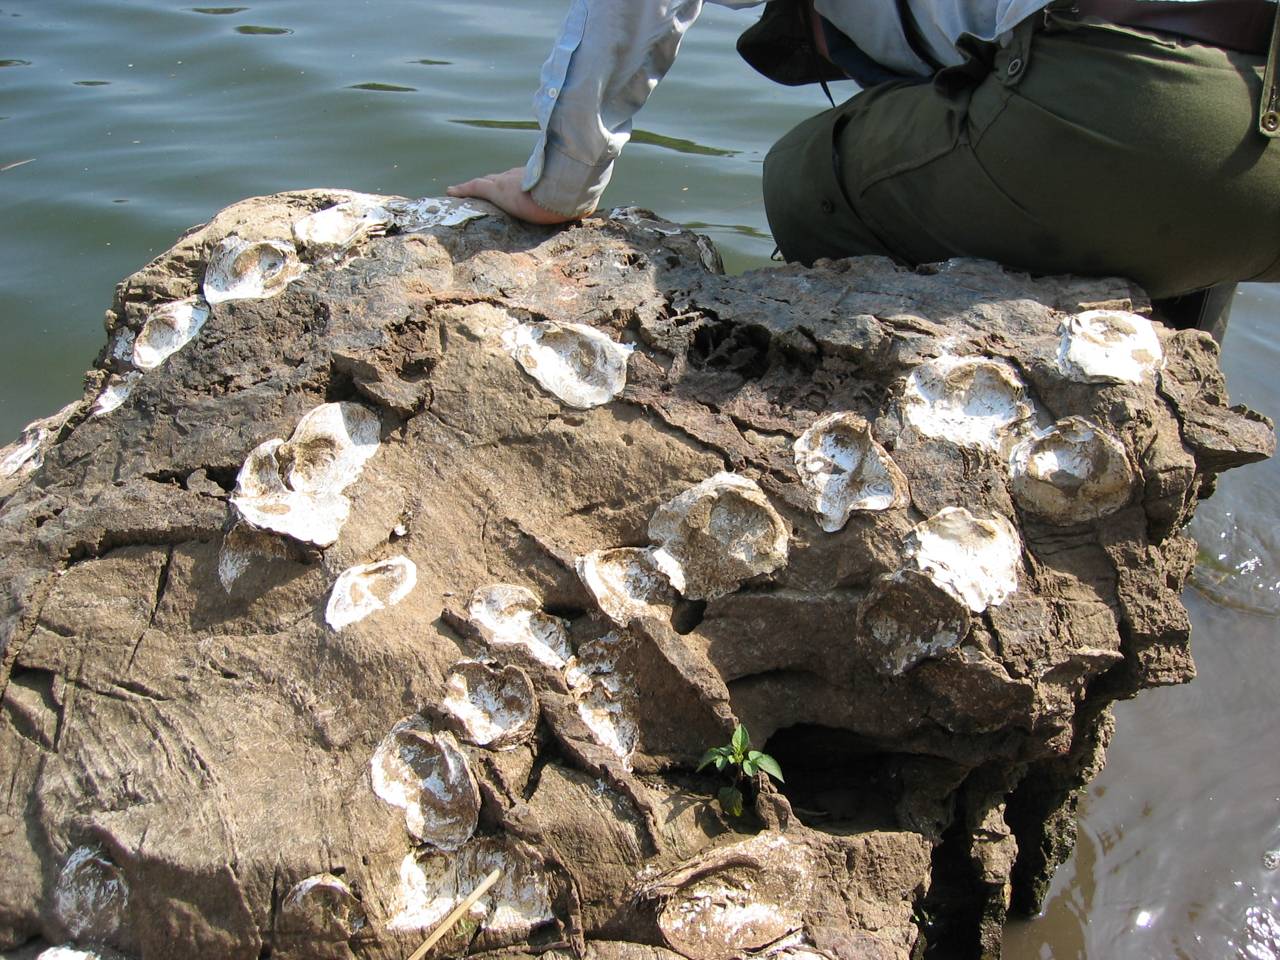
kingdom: Animalia
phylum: Mollusca
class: Bivalvia
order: Unionida
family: Etheriidae
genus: Etheria
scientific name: Etheria elliptica
